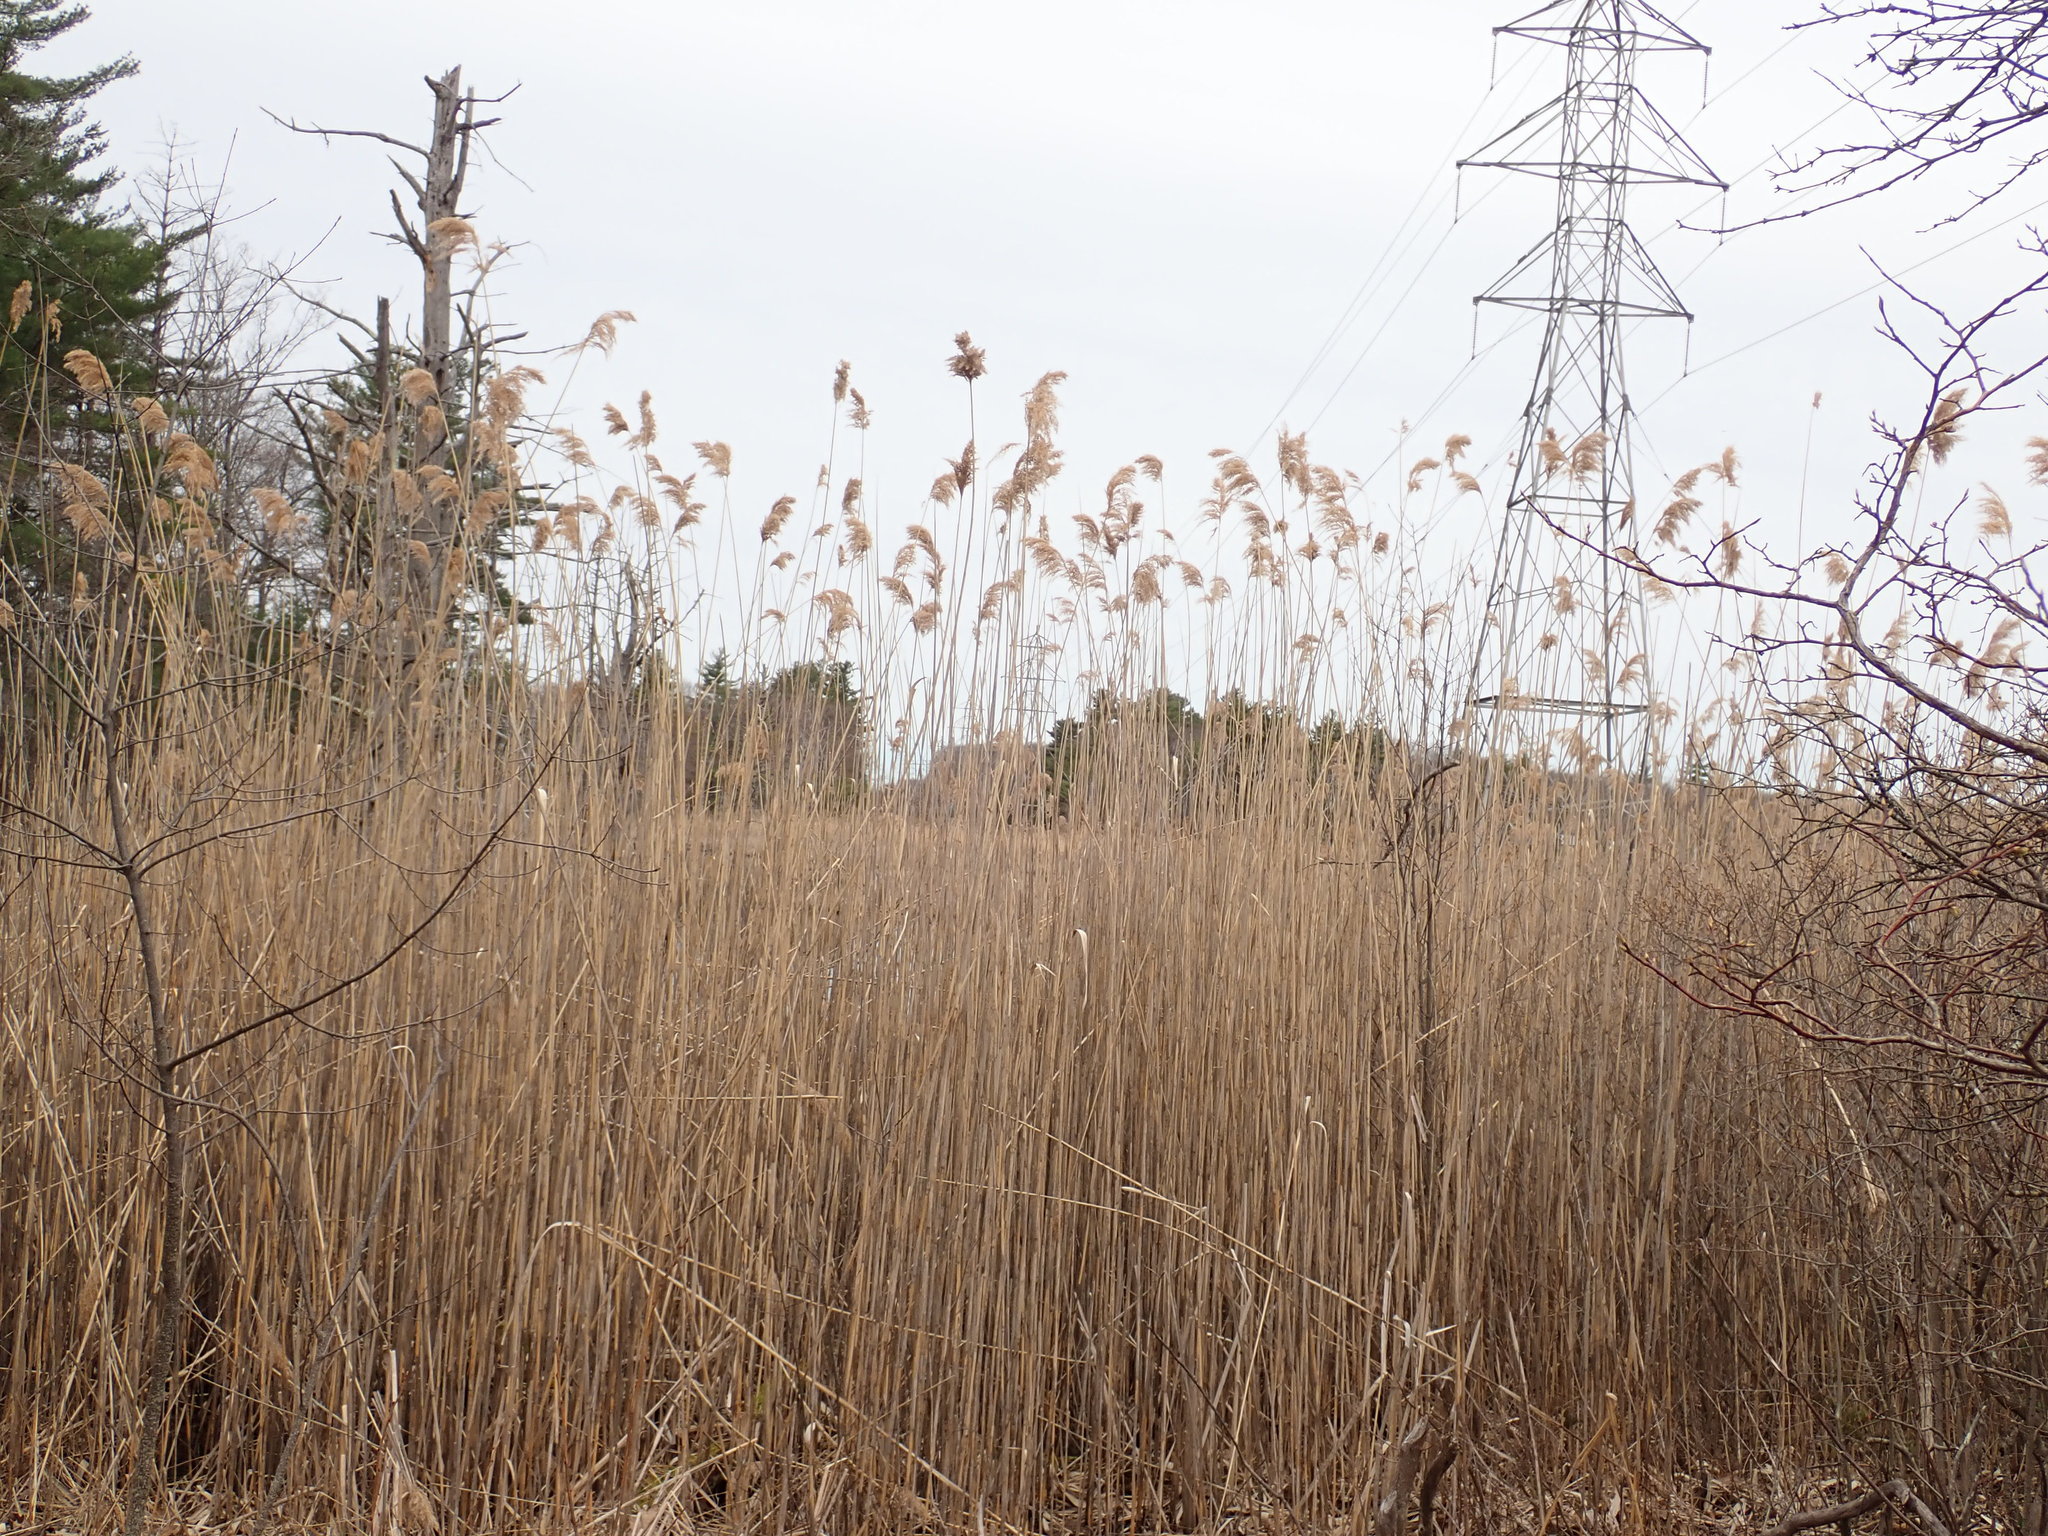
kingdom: Plantae
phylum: Tracheophyta
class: Liliopsida
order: Poales
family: Poaceae
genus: Phragmites
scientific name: Phragmites australis
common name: Common reed
